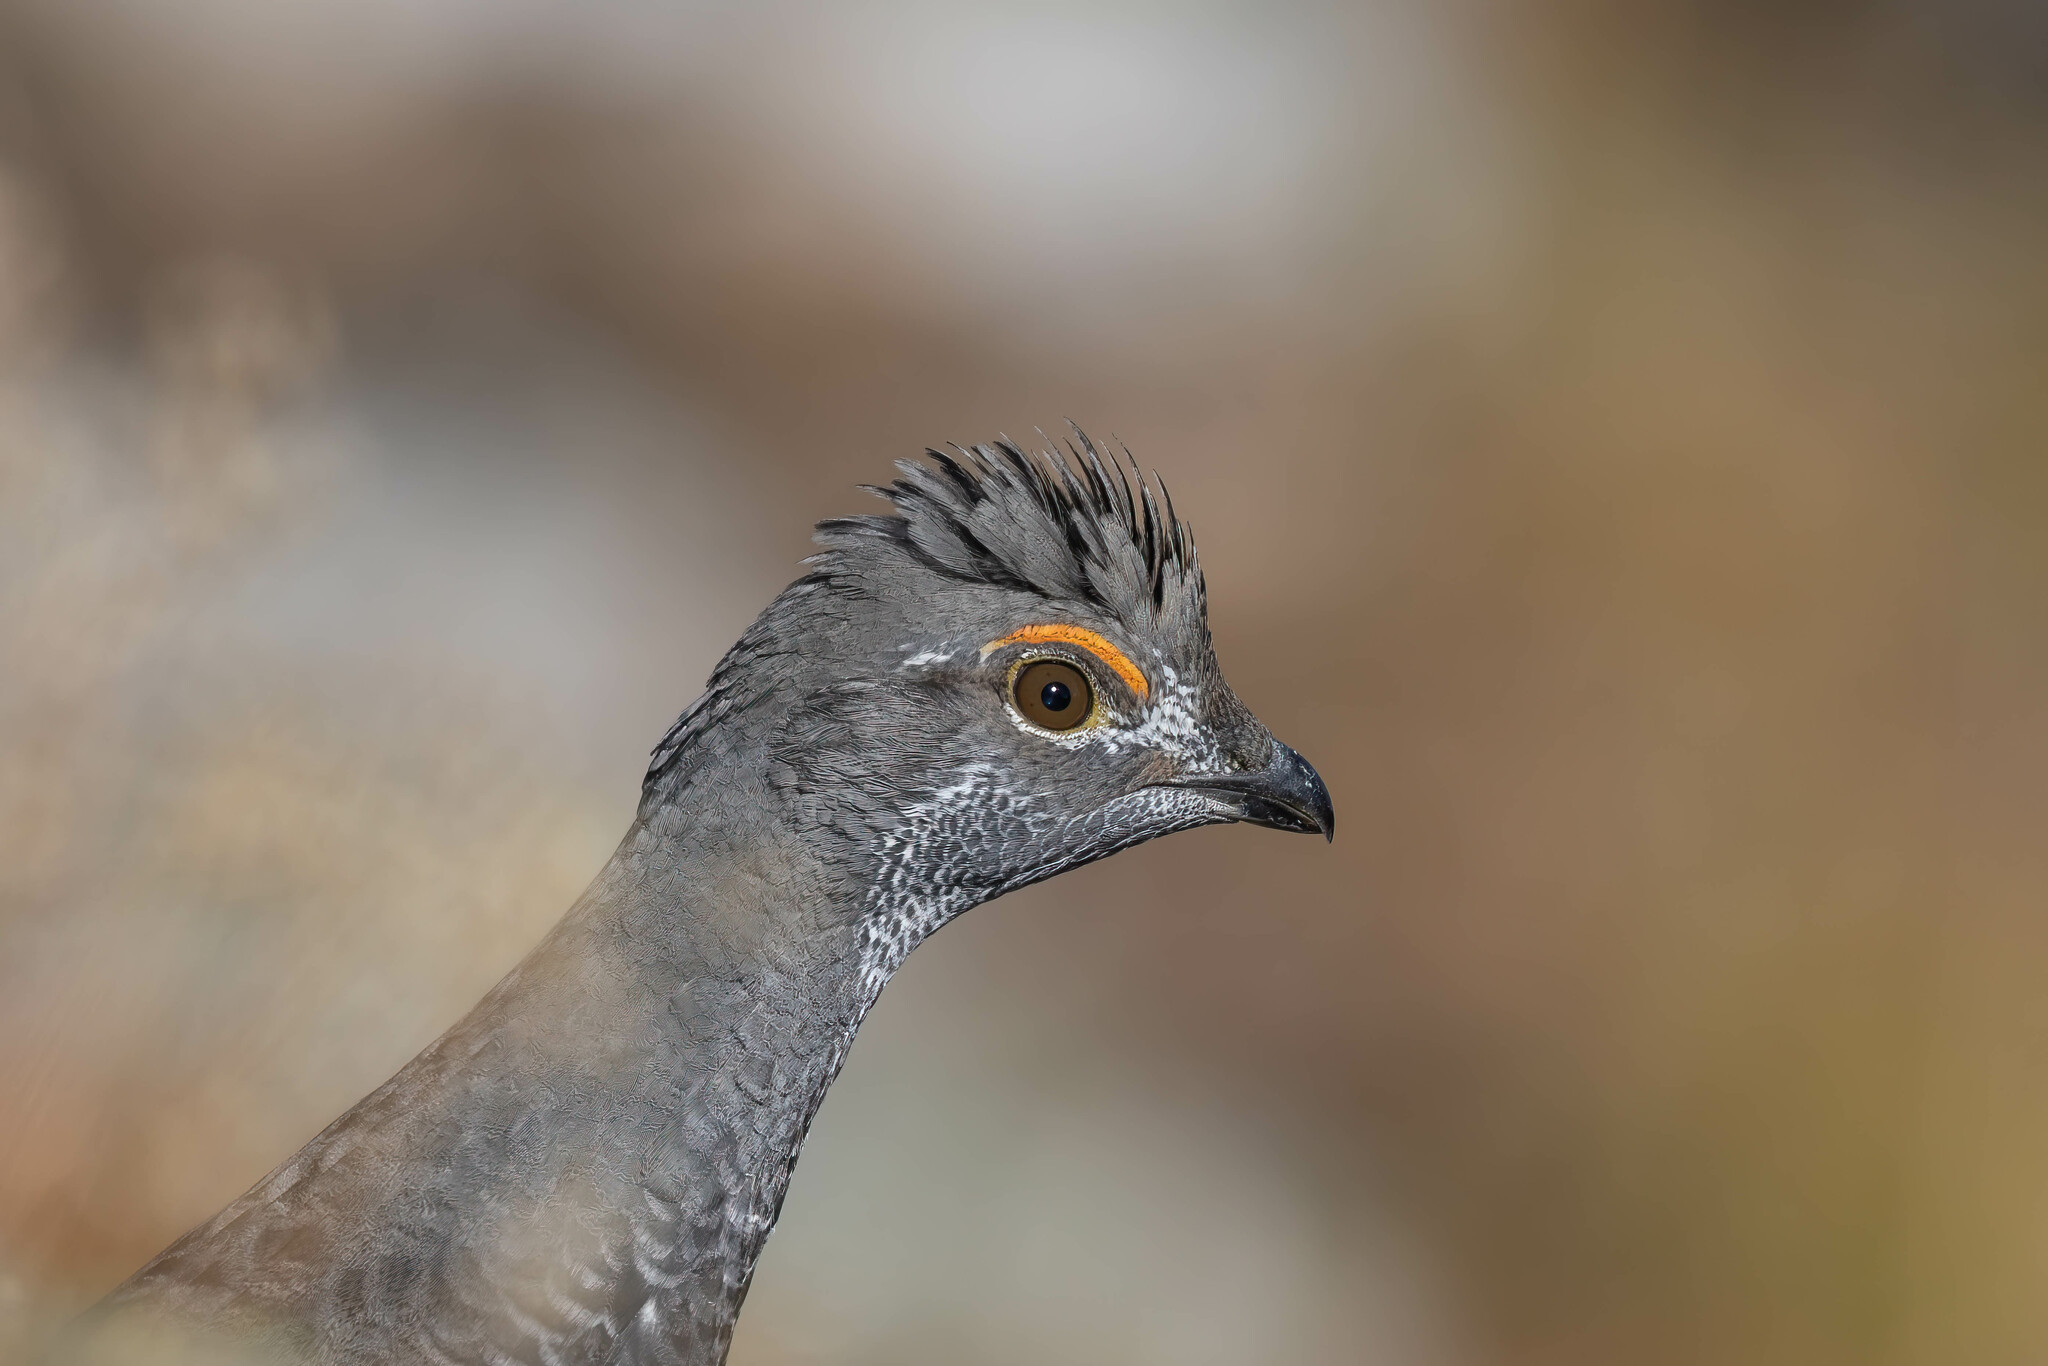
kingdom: Animalia
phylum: Chordata
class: Aves
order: Galliformes
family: Phasianidae
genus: Dendragapus
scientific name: Dendragapus obscurus
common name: Dusky grouse
